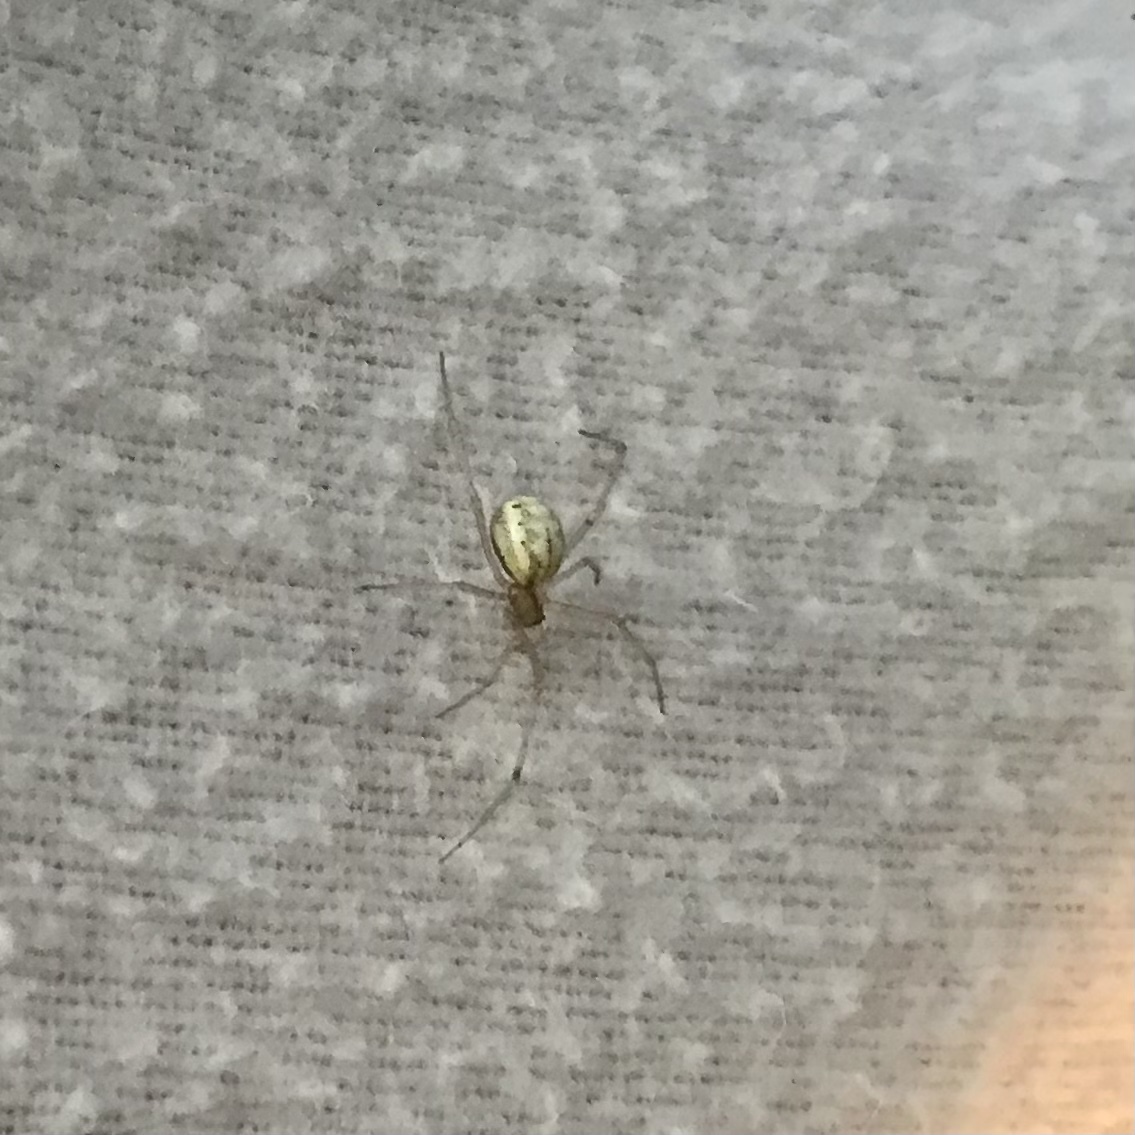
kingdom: Animalia
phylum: Arthropoda
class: Arachnida
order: Araneae
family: Theridiidae
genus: Enoplognatha
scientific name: Enoplognatha ovata
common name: Common candy-striped spider
